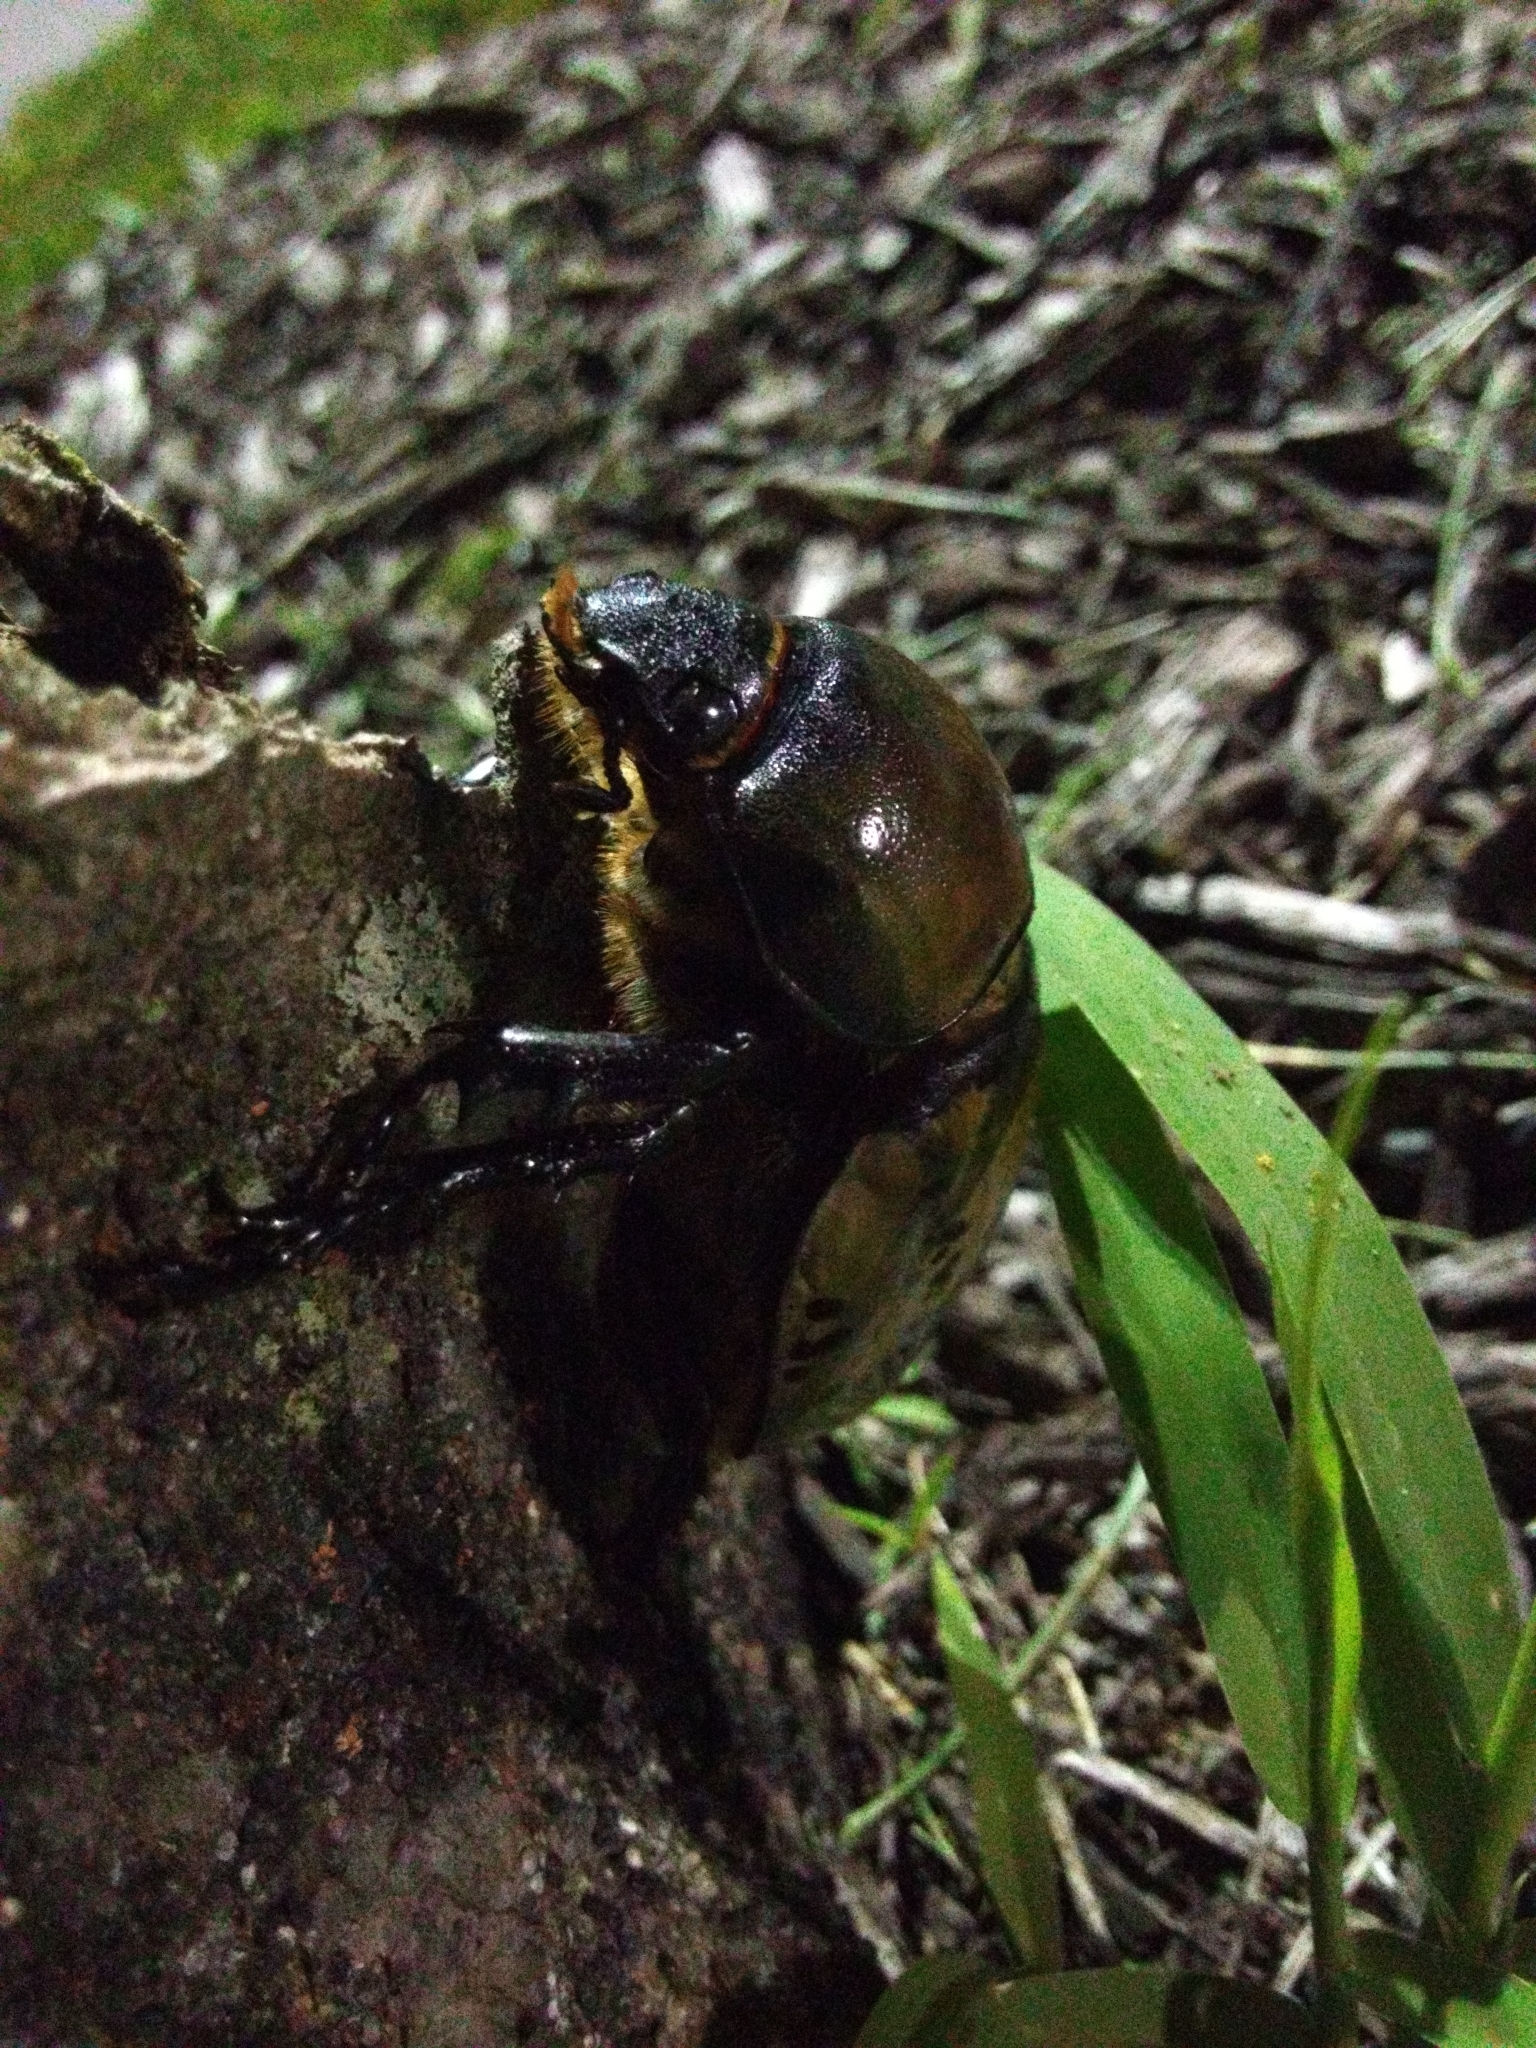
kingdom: Animalia
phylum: Arthropoda
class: Insecta
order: Coleoptera
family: Scarabaeidae
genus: Dynastes
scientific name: Dynastes tityus
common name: Eastern hercules beetle
